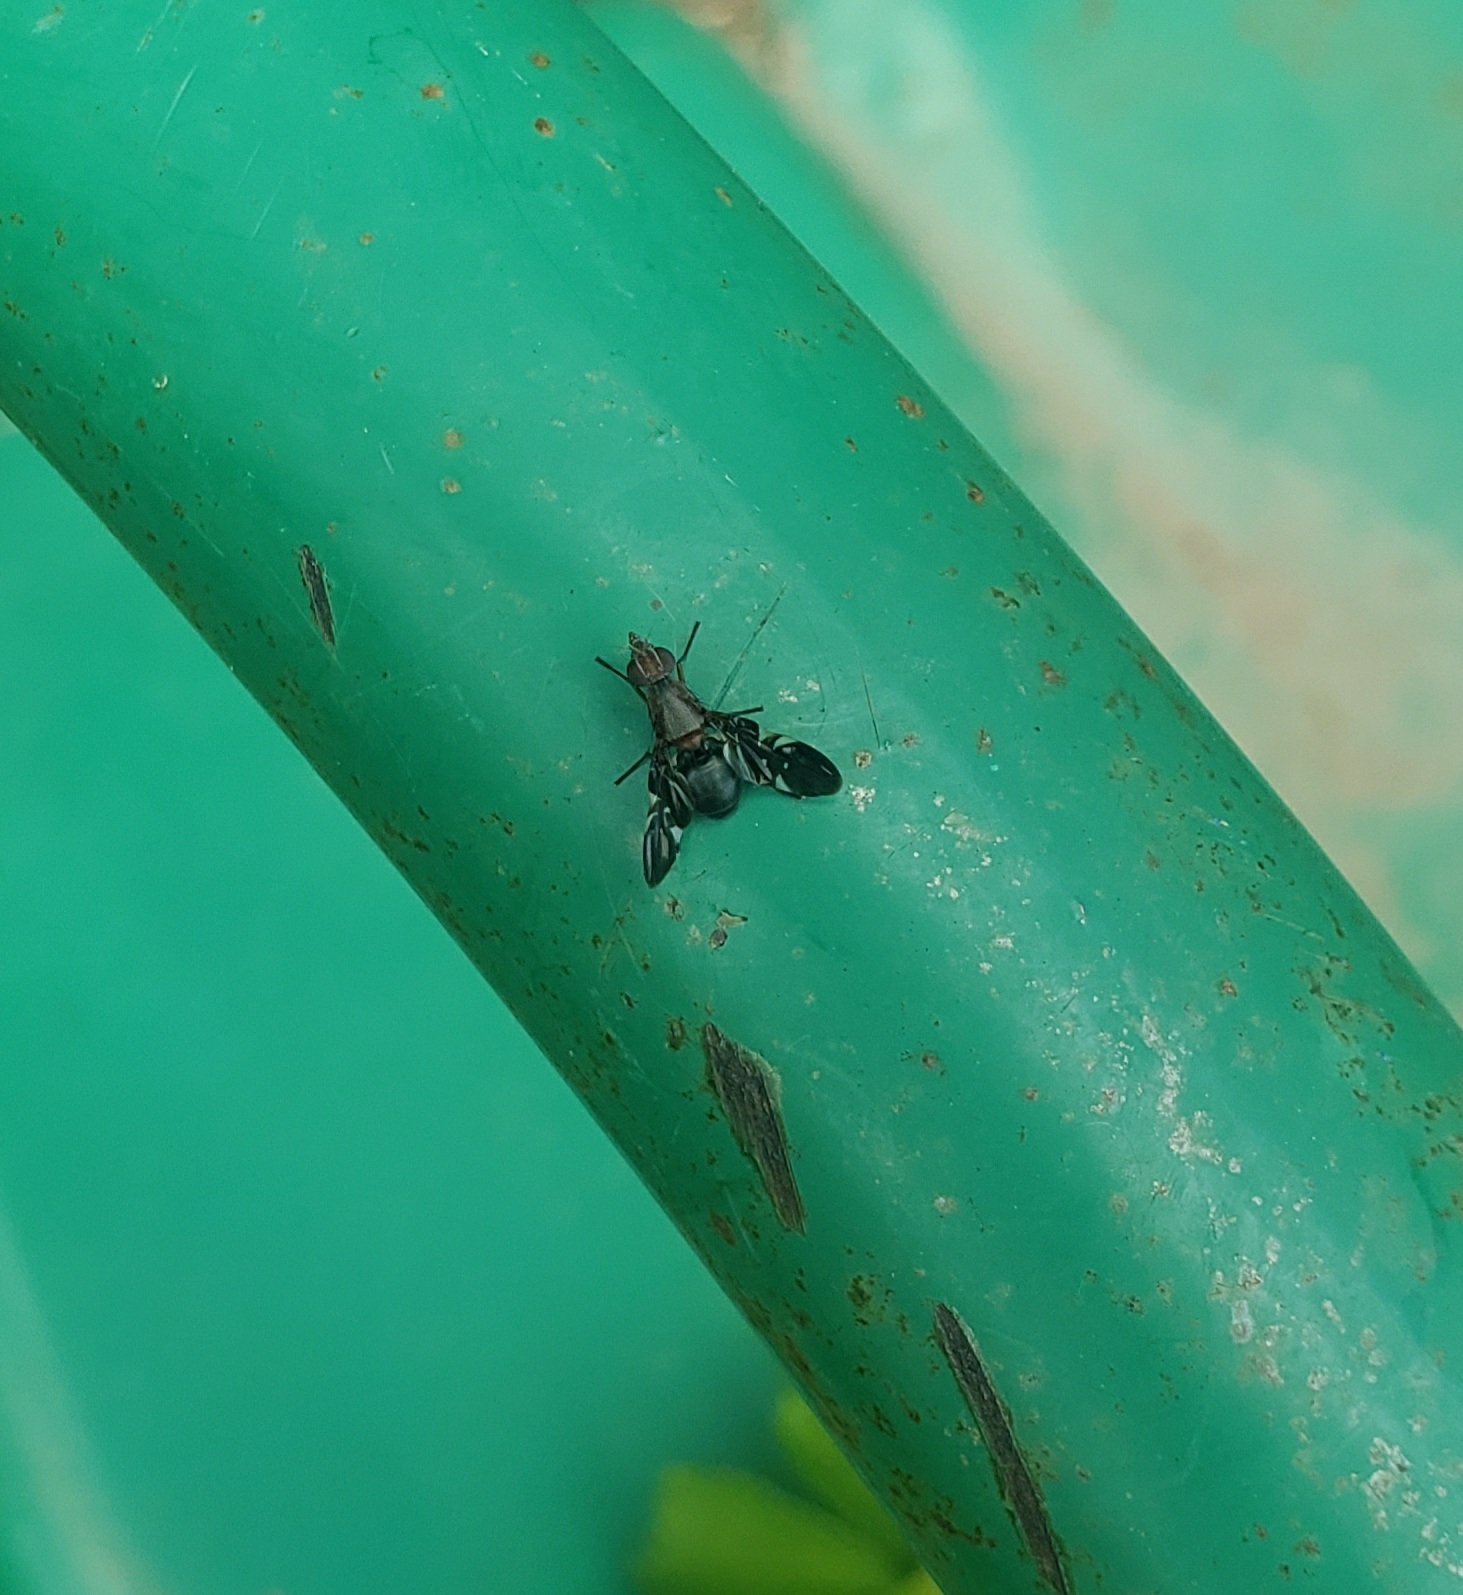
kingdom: Animalia
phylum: Arthropoda
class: Insecta
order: Diptera
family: Ulidiidae
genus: Delphinia
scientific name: Delphinia picta
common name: Common picture-winged fly
